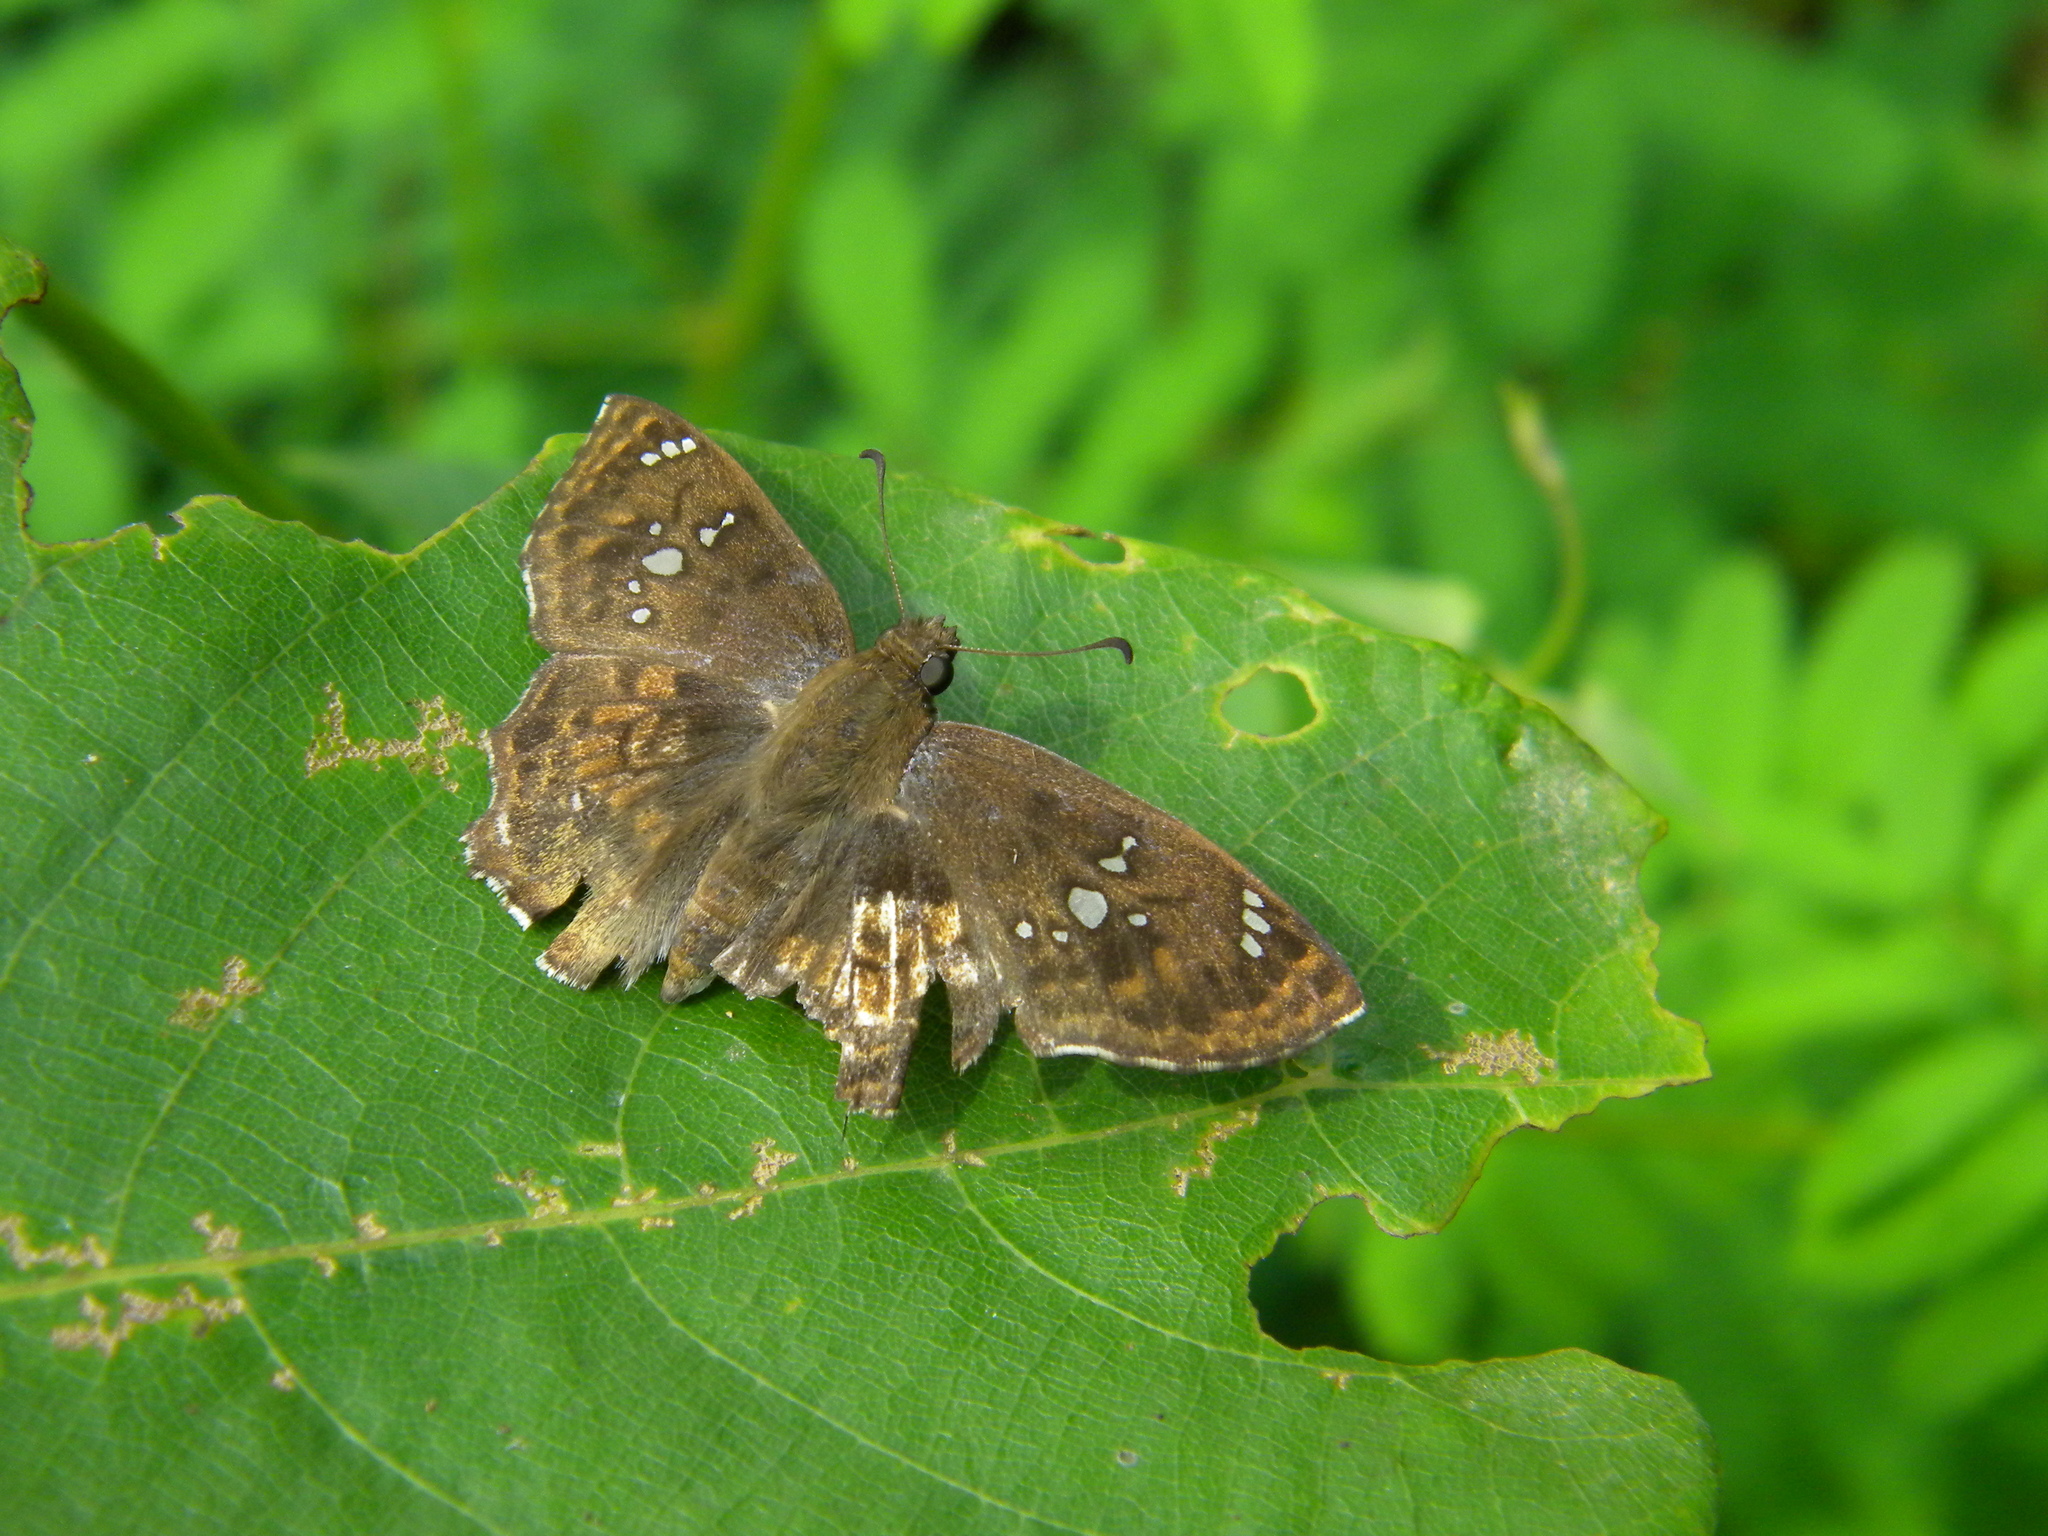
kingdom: Animalia
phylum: Arthropoda
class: Insecta
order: Lepidoptera
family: Hesperiidae
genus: Caprona
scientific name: Caprona ransonnettii
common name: Golden angle
